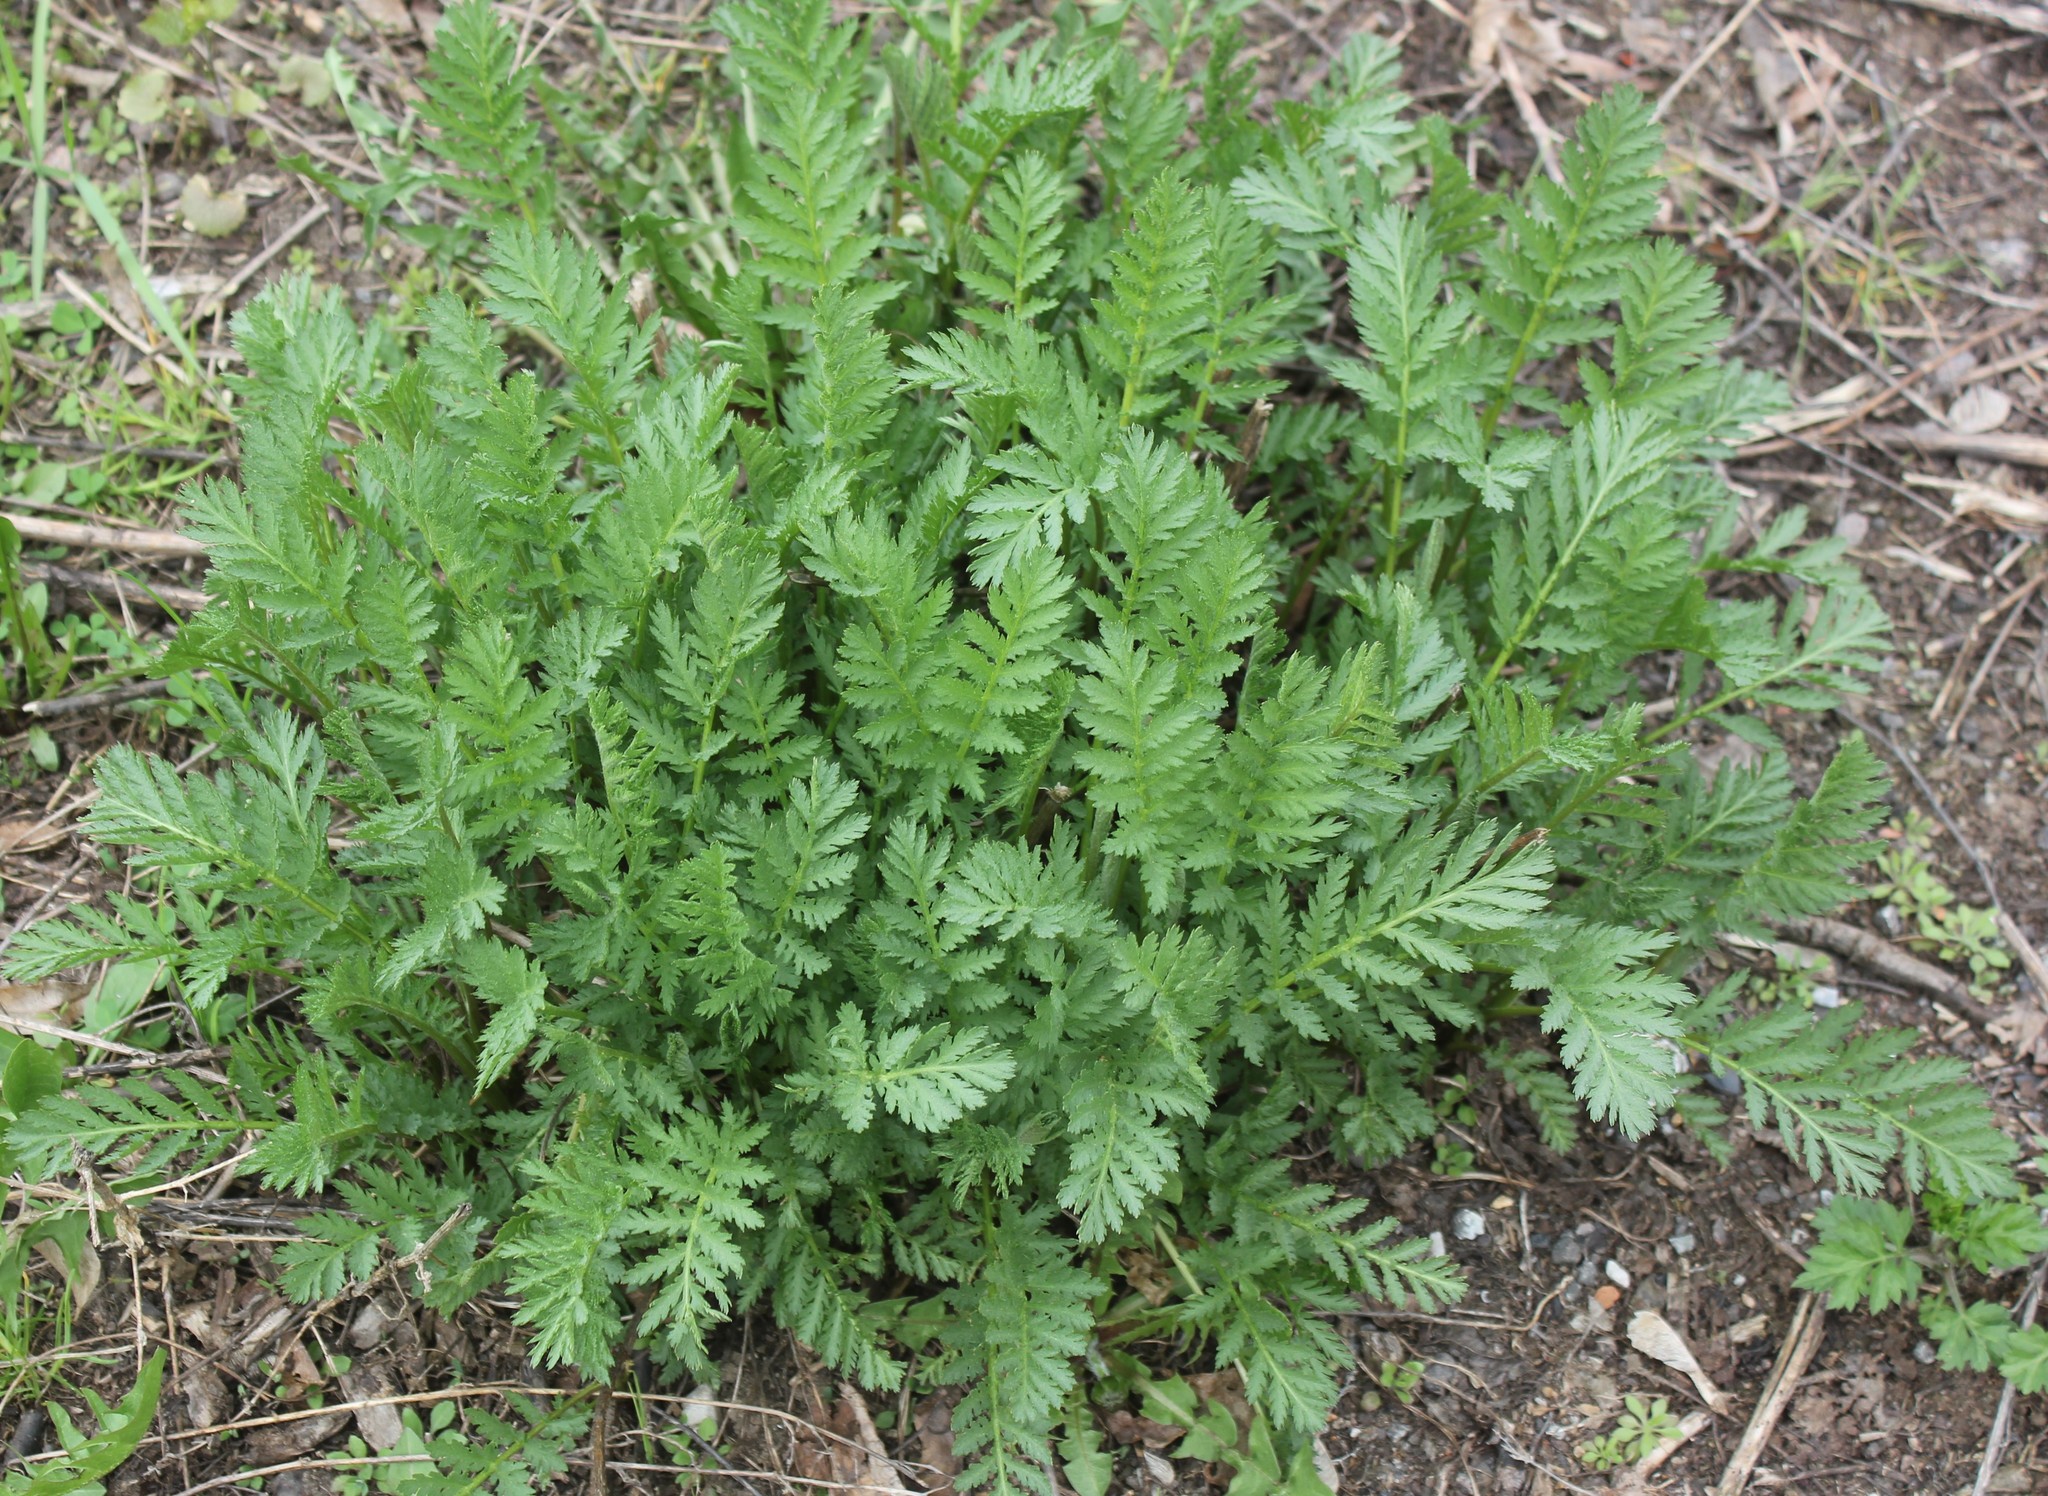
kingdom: Plantae
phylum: Tracheophyta
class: Magnoliopsida
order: Asterales
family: Asteraceae
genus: Tanacetum
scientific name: Tanacetum vulgare
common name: Common tansy
